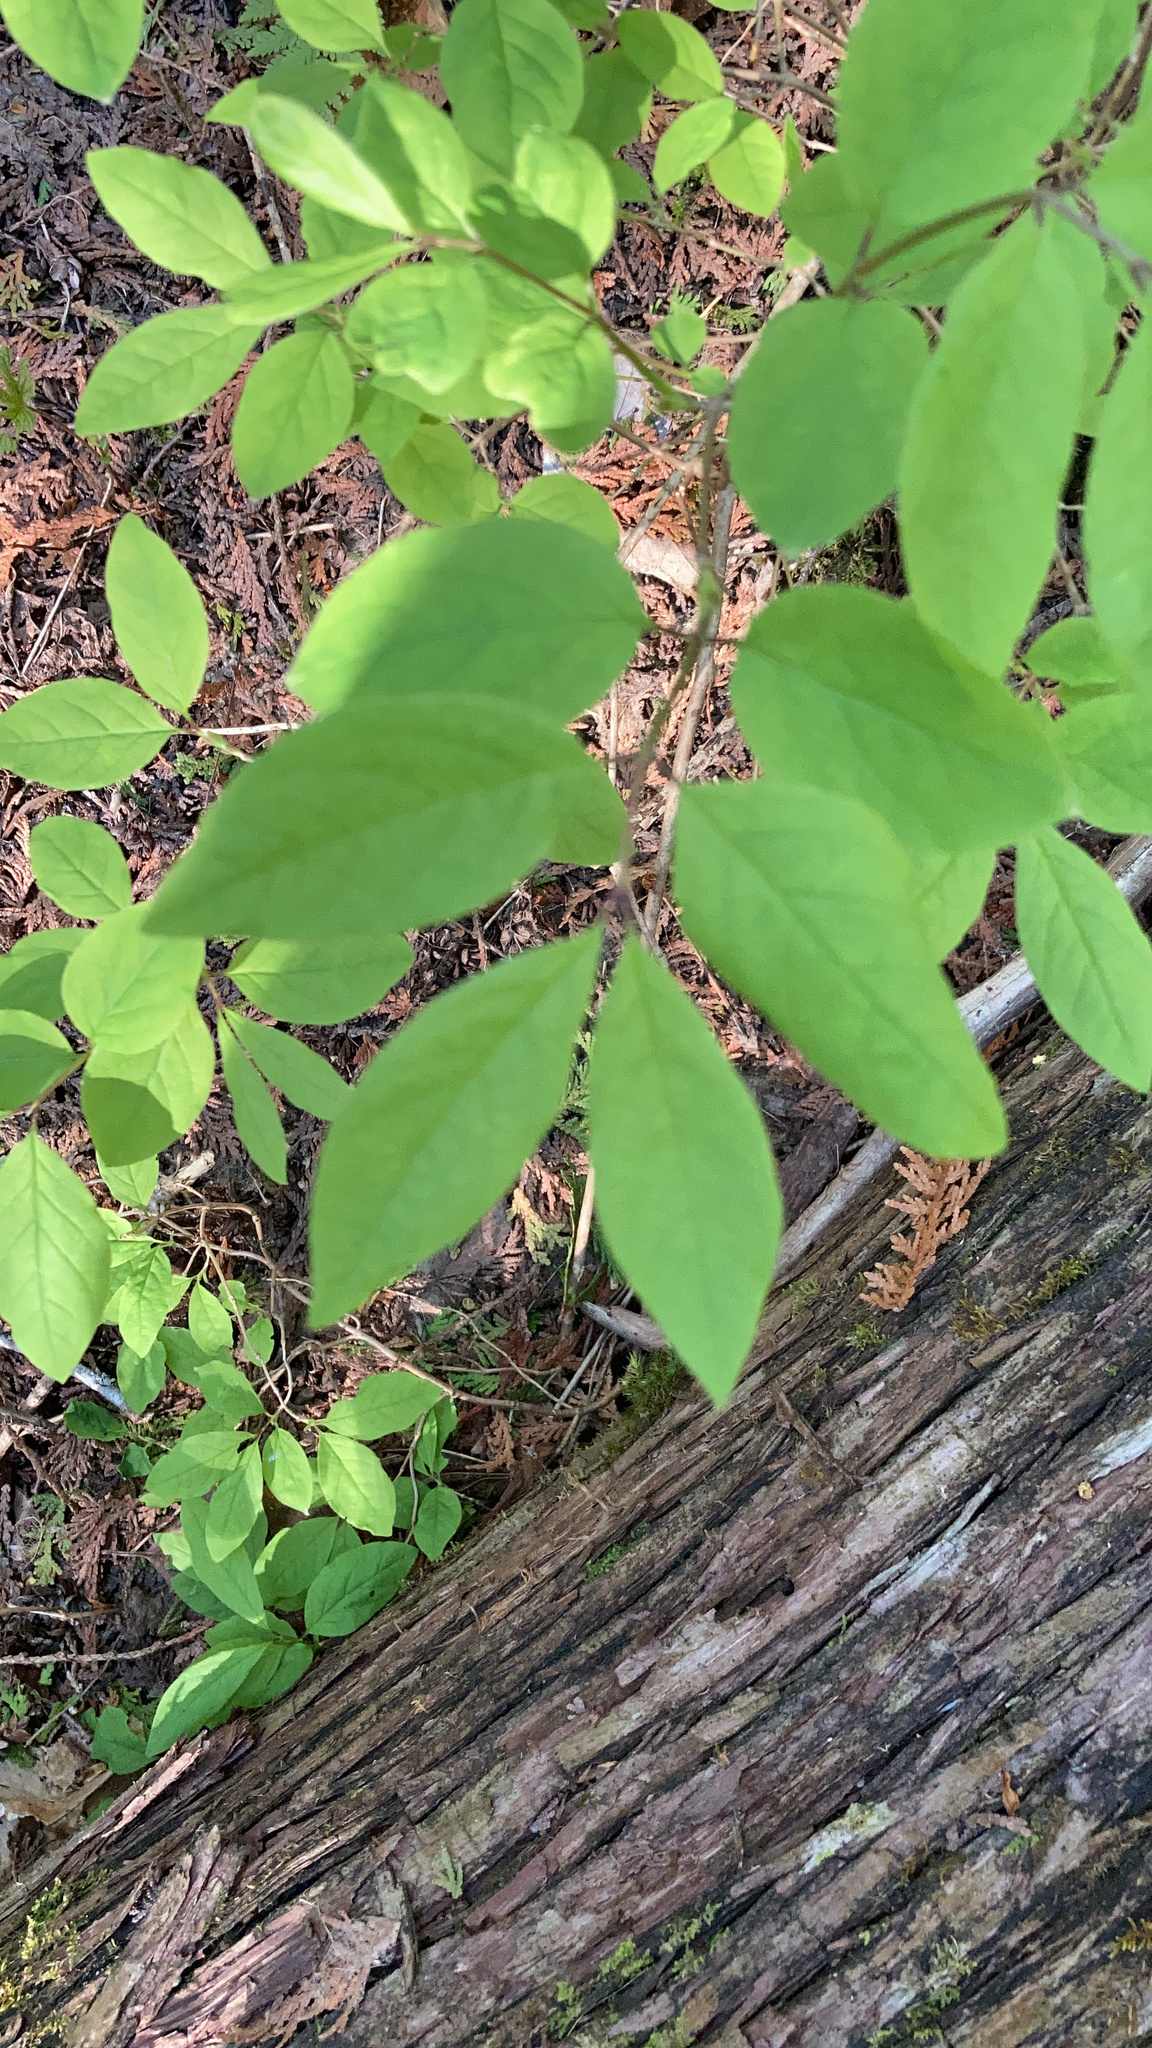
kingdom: Plantae
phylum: Tracheophyta
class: Magnoliopsida
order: Dipsacales
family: Caprifoliaceae
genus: Lonicera
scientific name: Lonicera canadensis
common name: American fly-honeysuckle
